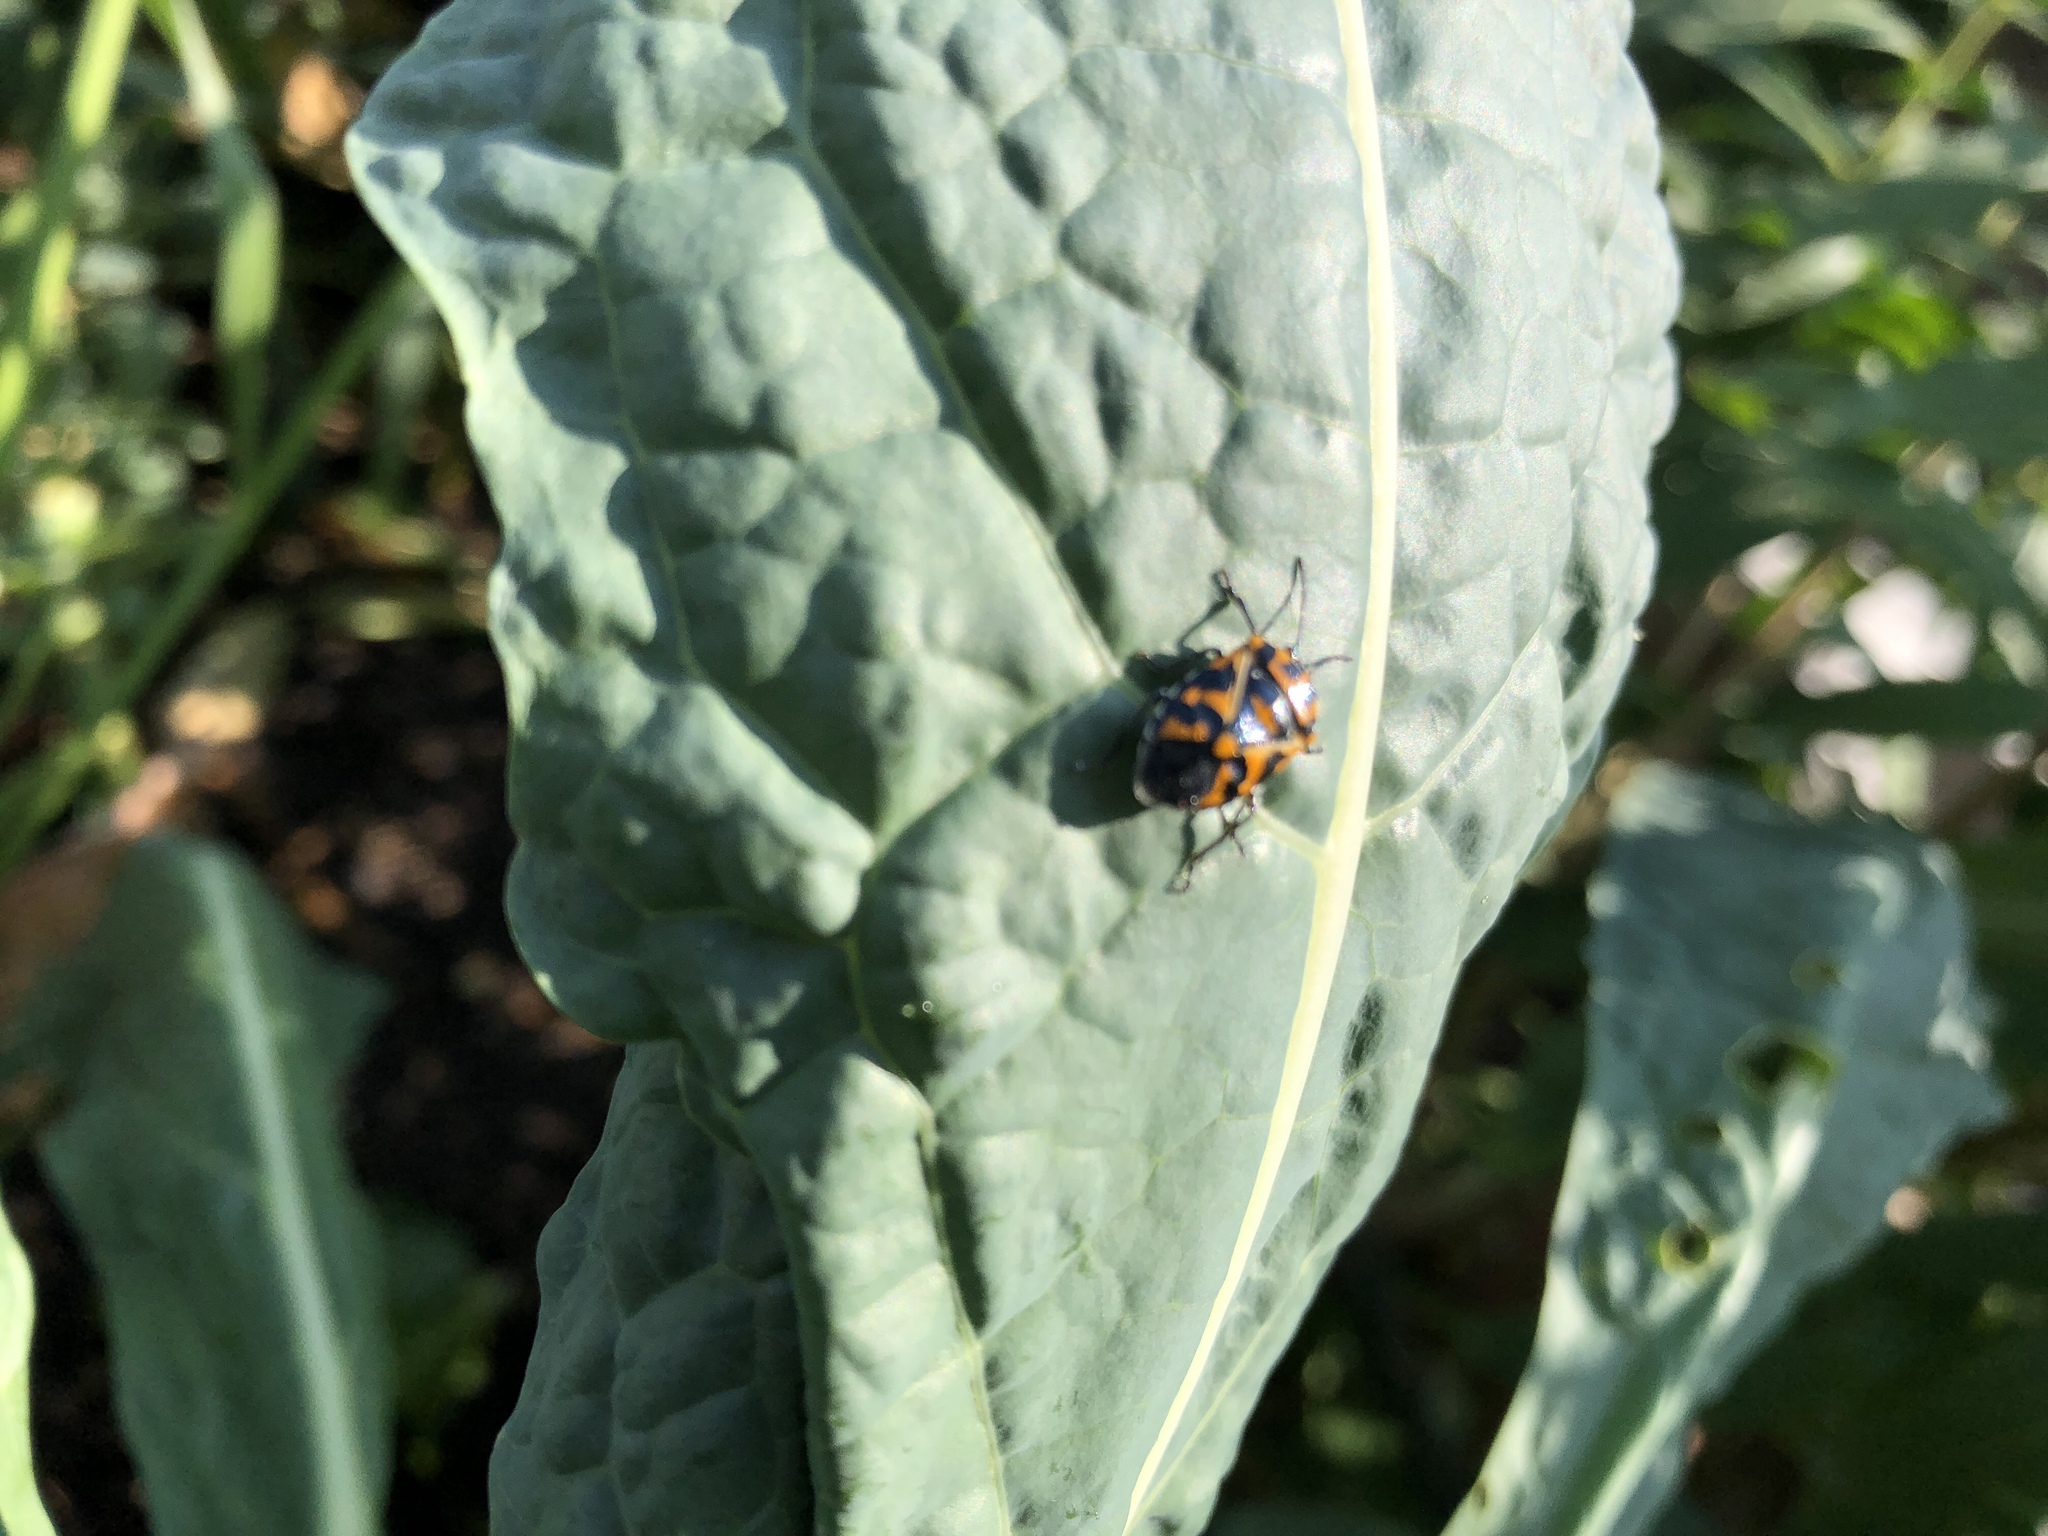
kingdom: Animalia
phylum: Arthropoda
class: Insecta
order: Hemiptera
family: Pentatomidae
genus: Murgantia
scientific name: Murgantia histrionica
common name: Harlequin bug
